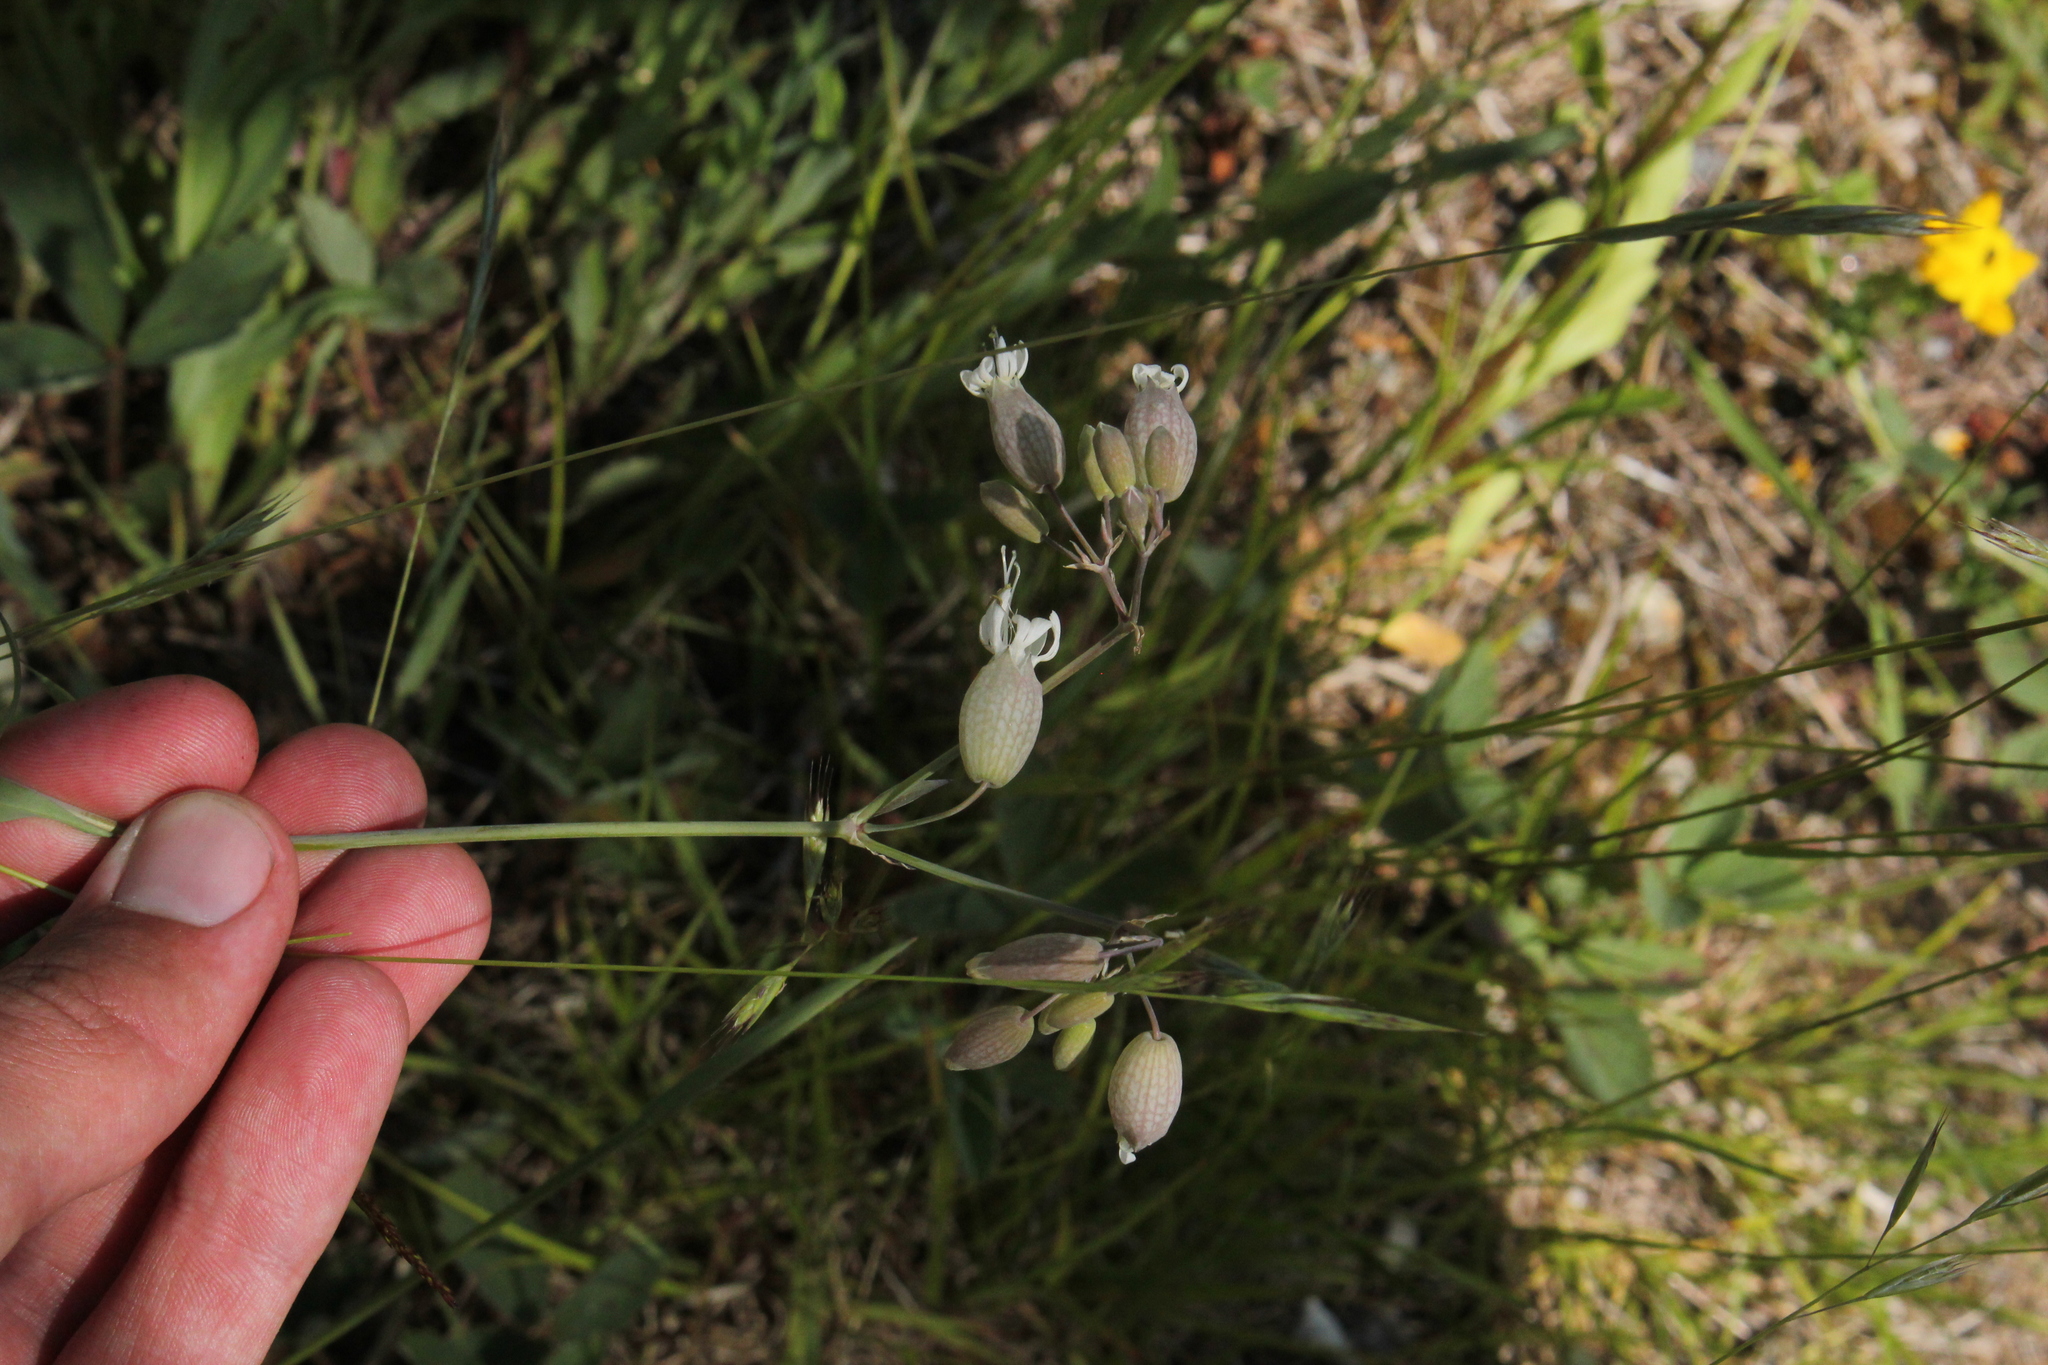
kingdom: Plantae
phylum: Tracheophyta
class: Magnoliopsida
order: Caryophyllales
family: Caryophyllaceae
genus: Silene
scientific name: Silene vulgaris
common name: Bladder campion
